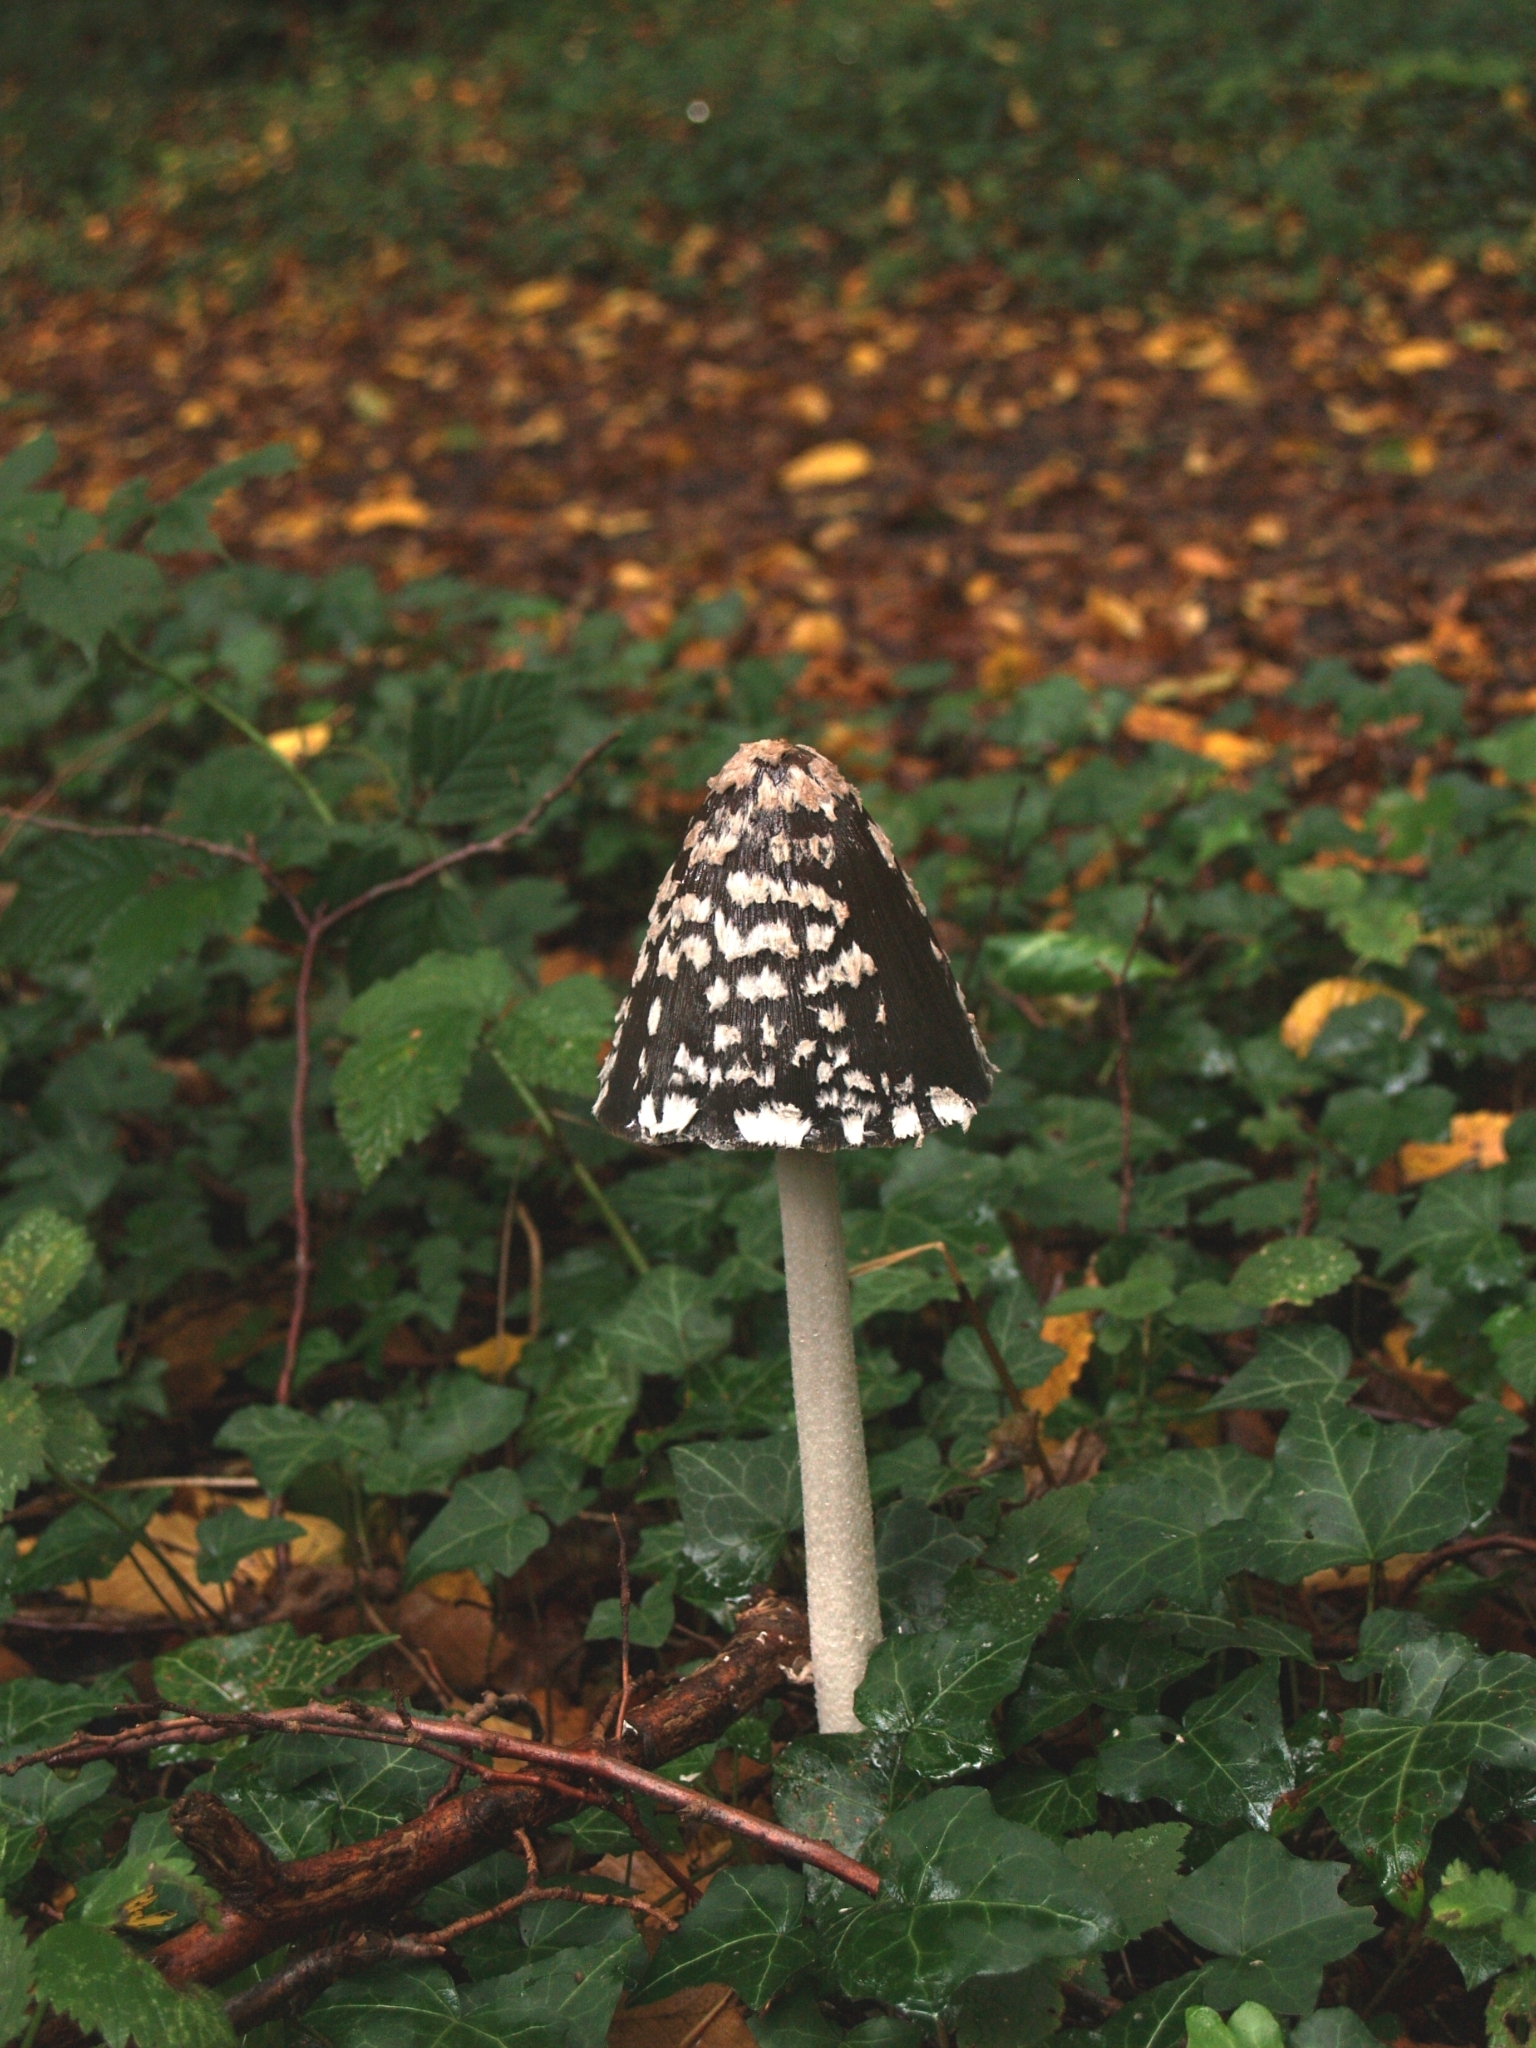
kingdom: Fungi
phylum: Basidiomycota
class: Agaricomycetes
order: Agaricales
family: Psathyrellaceae
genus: Coprinopsis
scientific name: Coprinopsis picacea
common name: Magpie inkcap
